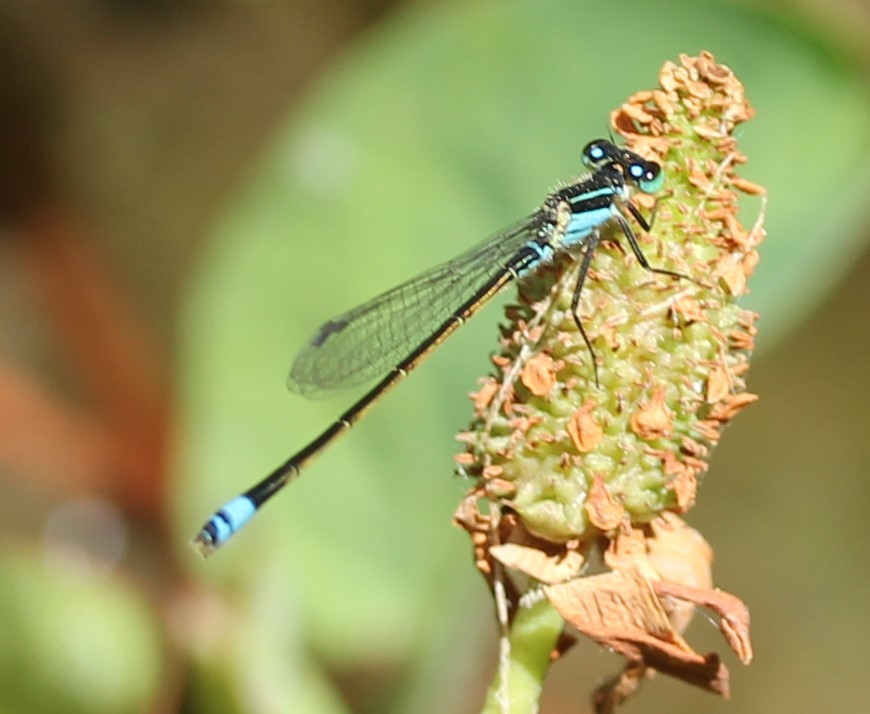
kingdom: Animalia
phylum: Arthropoda
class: Insecta
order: Odonata
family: Coenagrionidae
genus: Ischnura
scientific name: Ischnura ramburii
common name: Rambur's forktail
